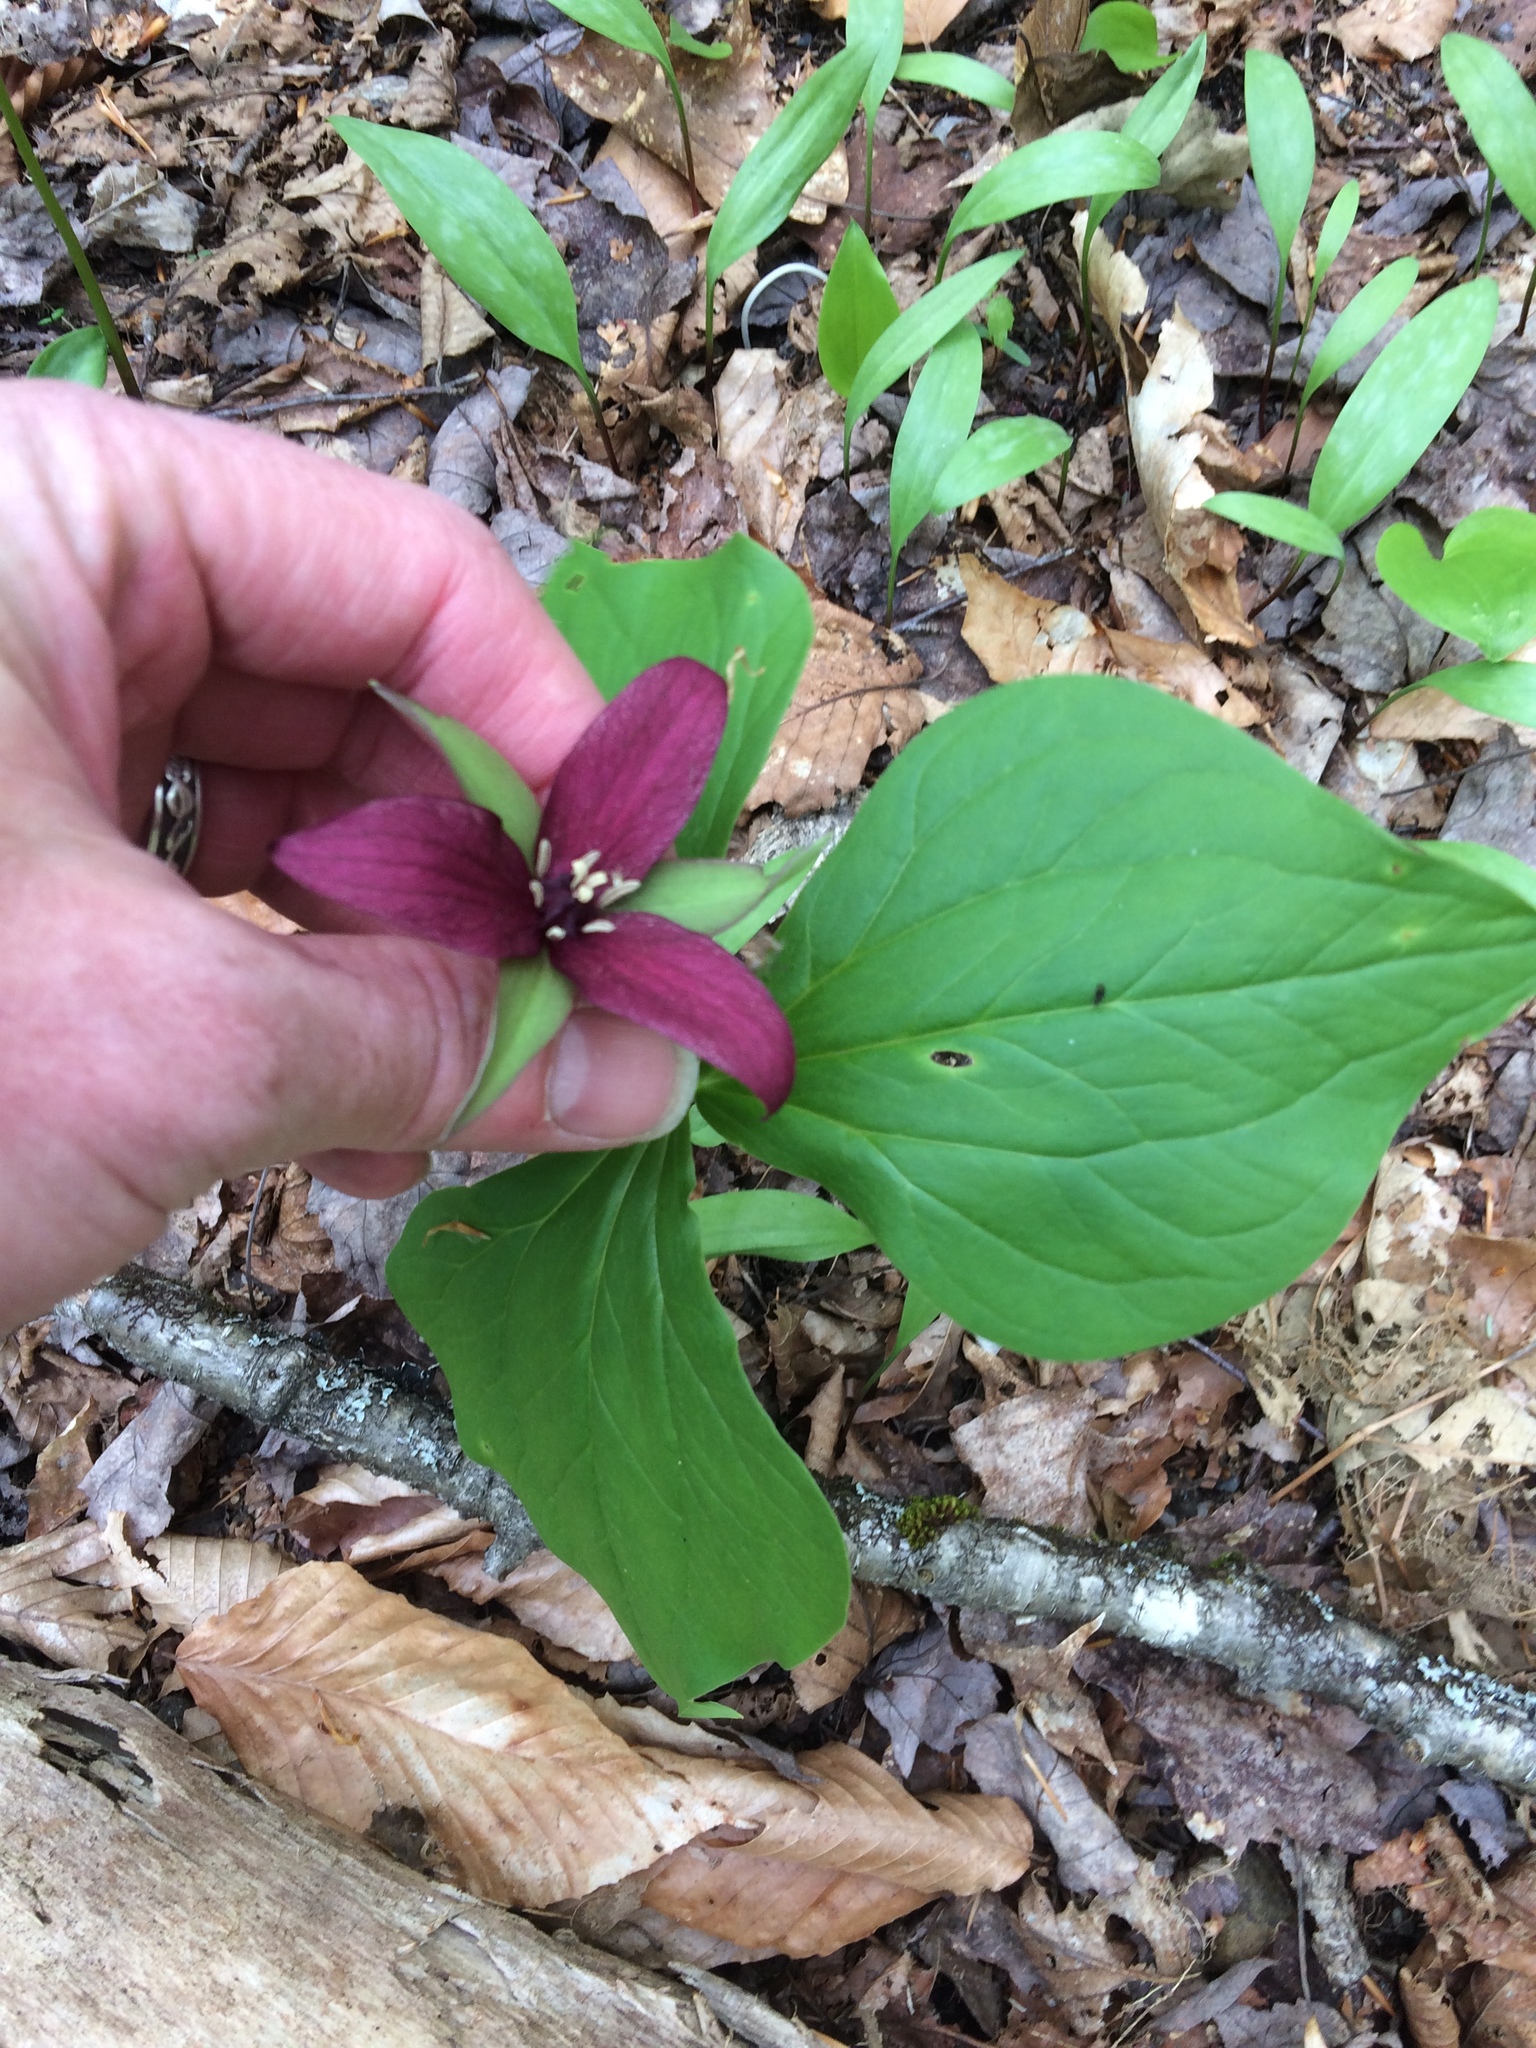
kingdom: Plantae
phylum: Tracheophyta
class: Liliopsida
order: Liliales
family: Melanthiaceae
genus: Trillium
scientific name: Trillium erectum
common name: Purple trillium
